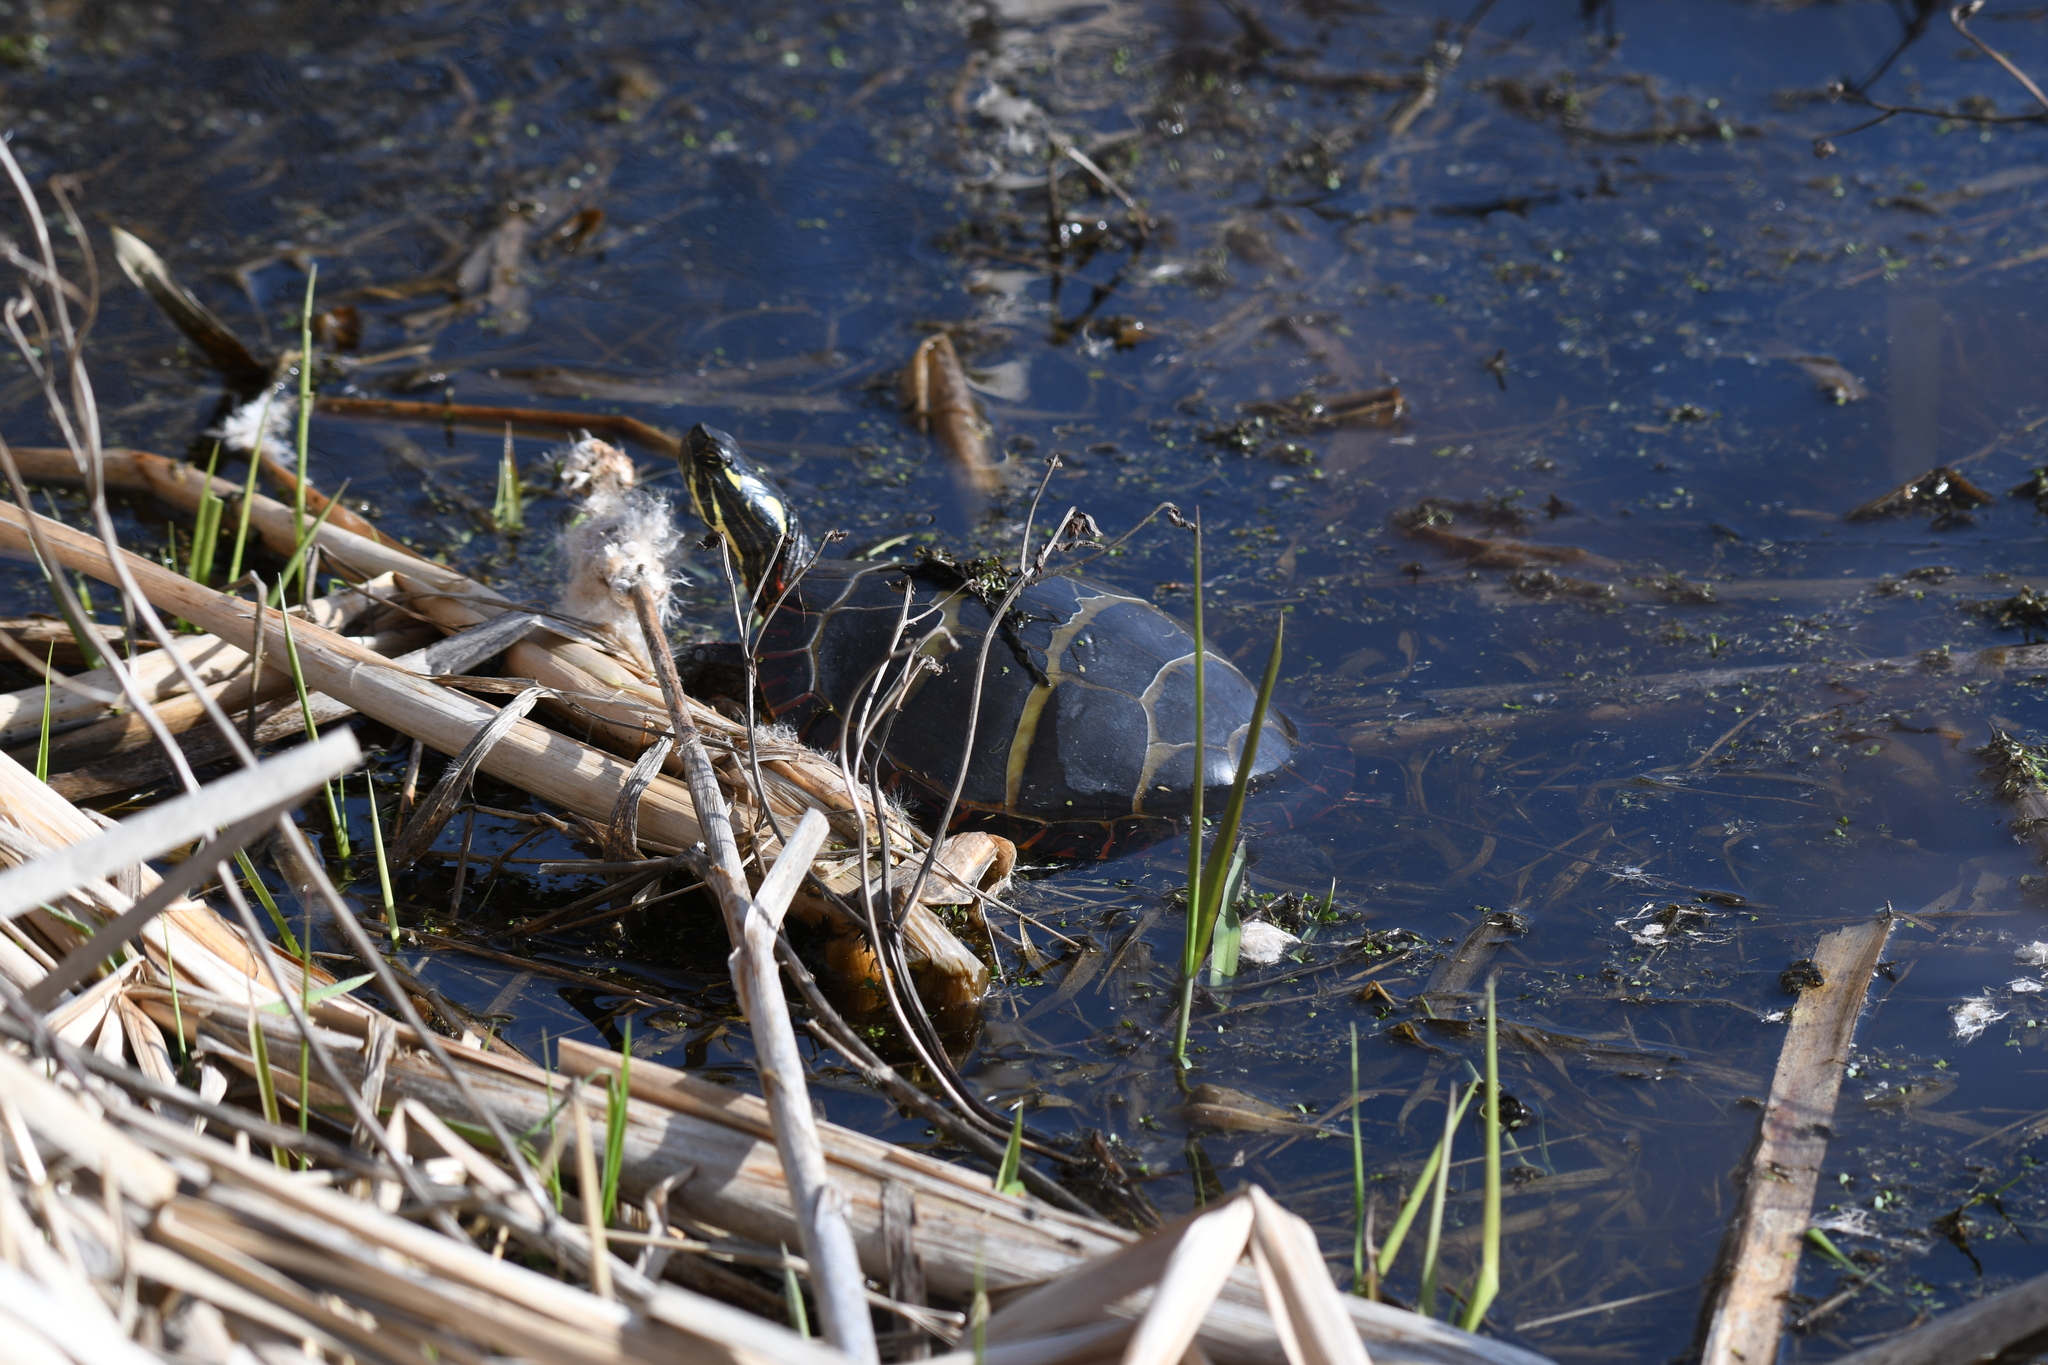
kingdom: Animalia
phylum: Chordata
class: Testudines
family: Emydidae
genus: Chrysemys
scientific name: Chrysemys picta
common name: Painted turtle
